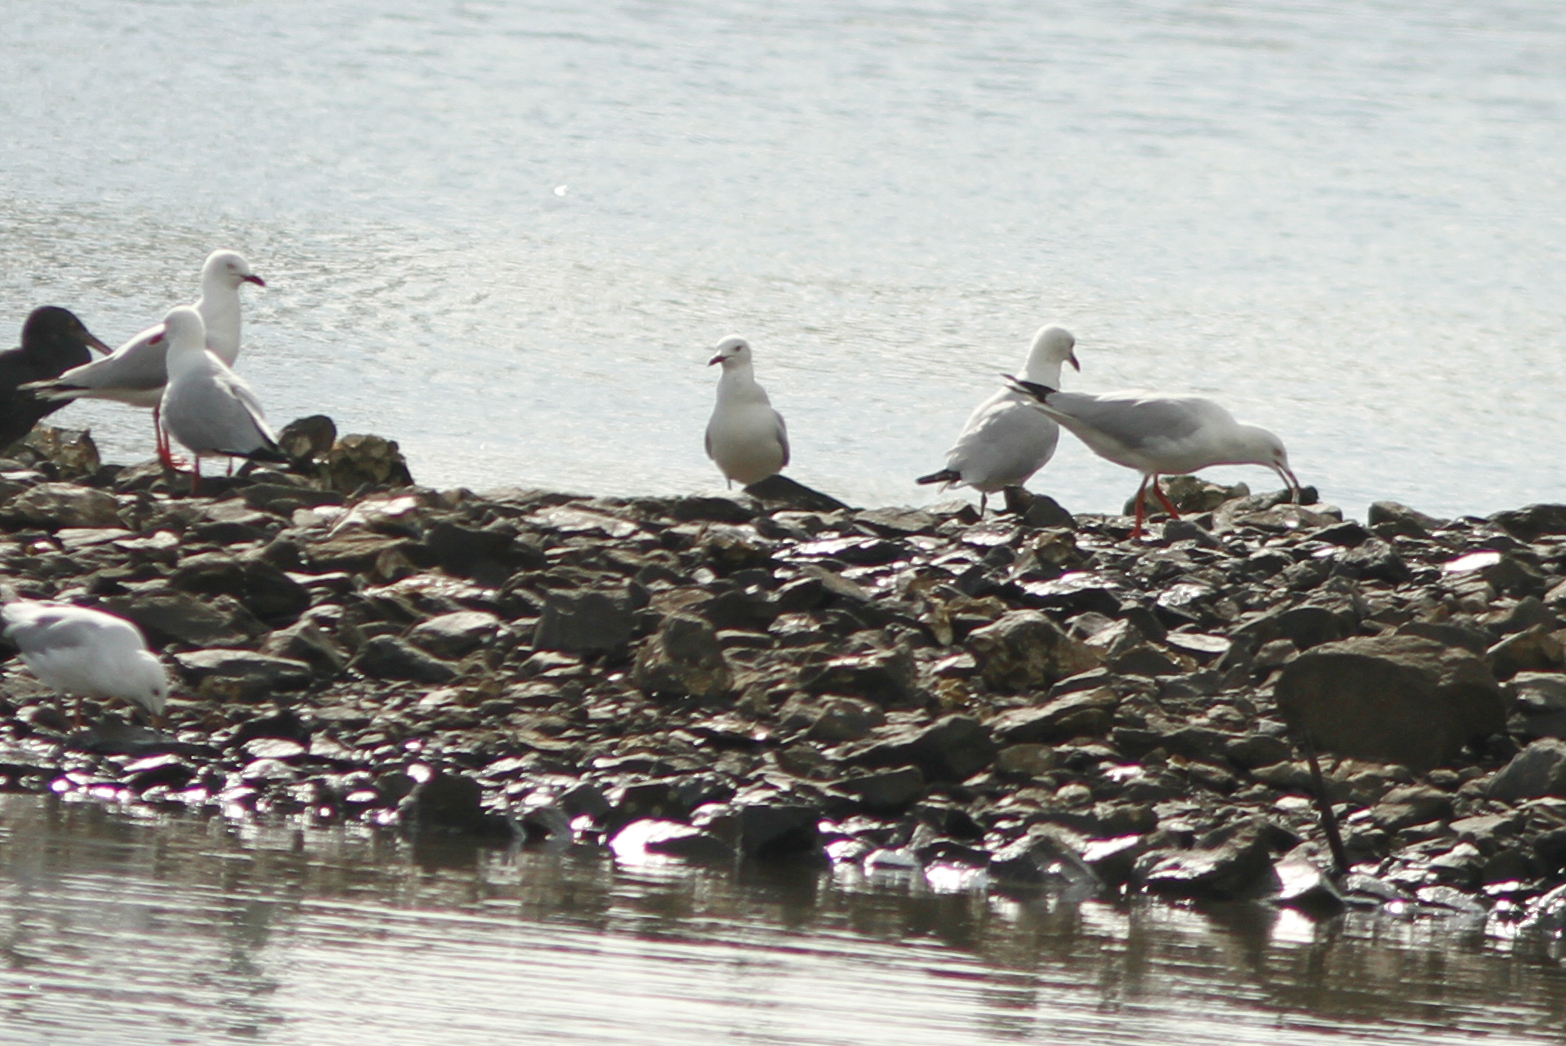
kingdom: Animalia
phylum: Chordata
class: Aves
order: Charadriiformes
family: Laridae
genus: Chroicocephalus
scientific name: Chroicocephalus novaehollandiae
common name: Silver gull
